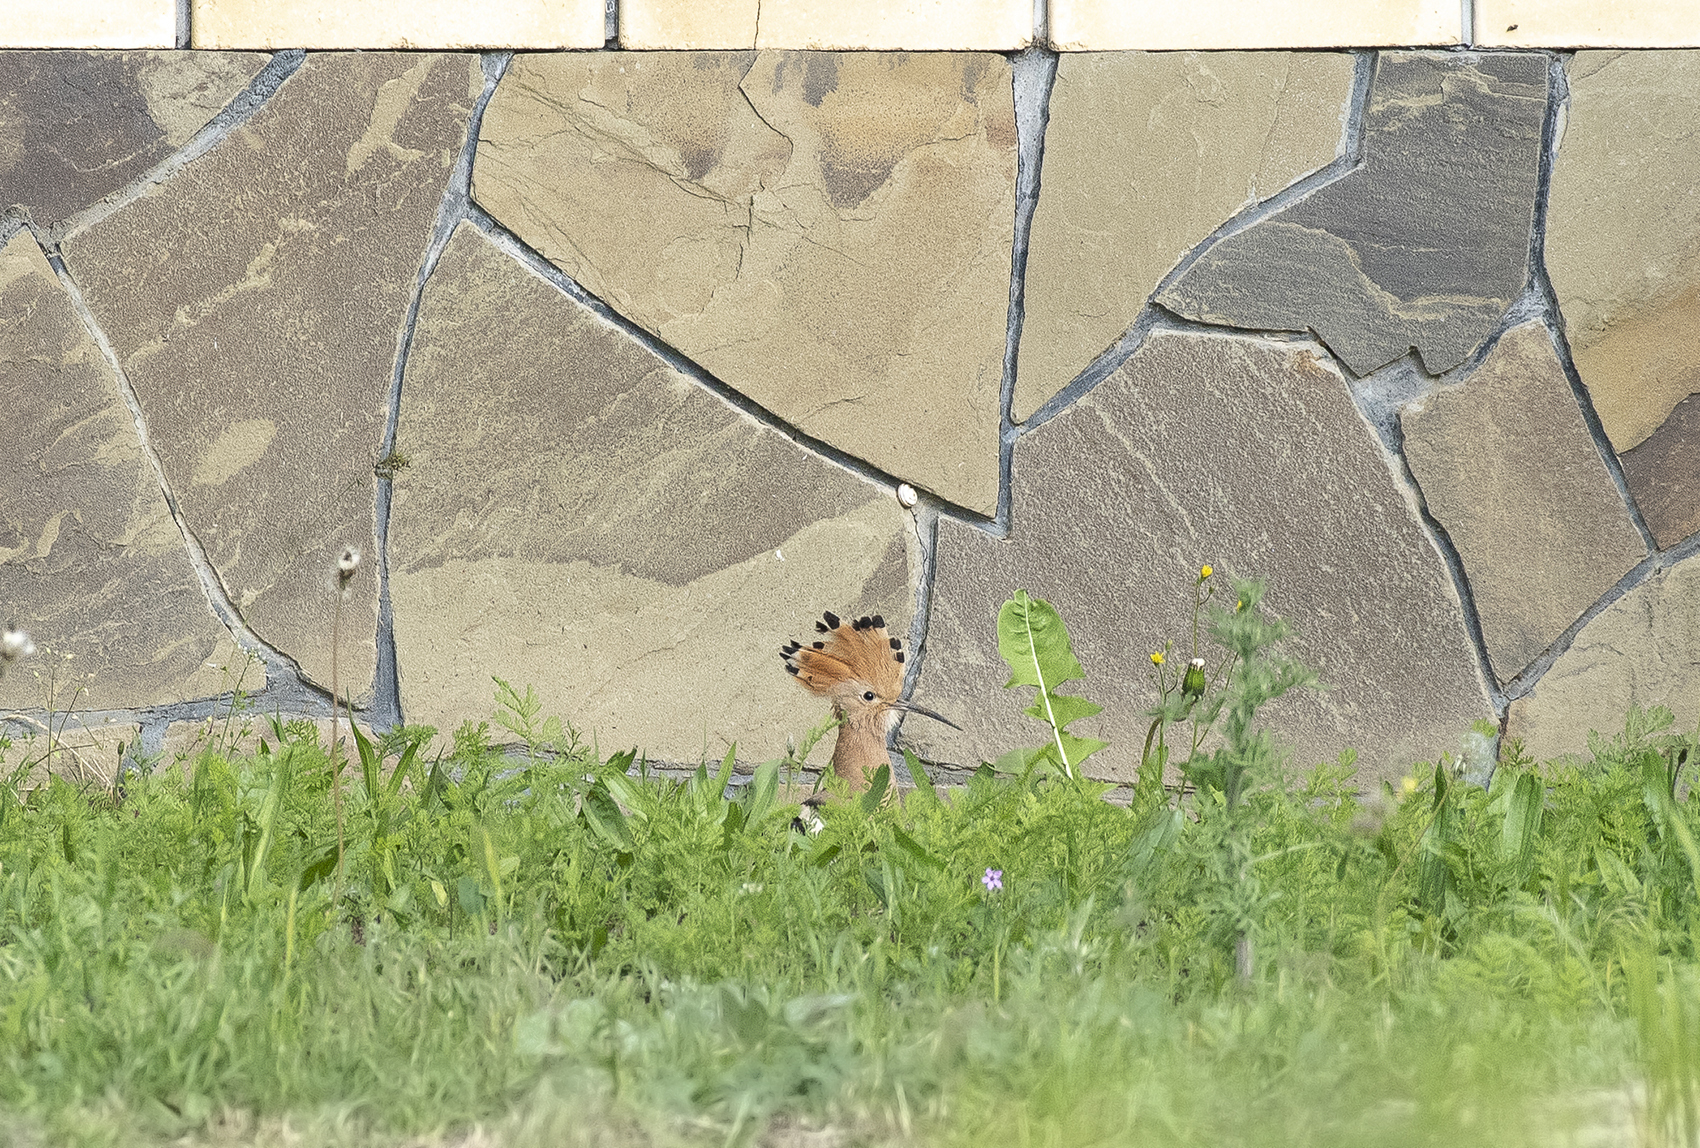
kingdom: Animalia
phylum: Chordata
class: Aves
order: Bucerotiformes
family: Upupidae
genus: Upupa
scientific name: Upupa epops
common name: Eurasian hoopoe
